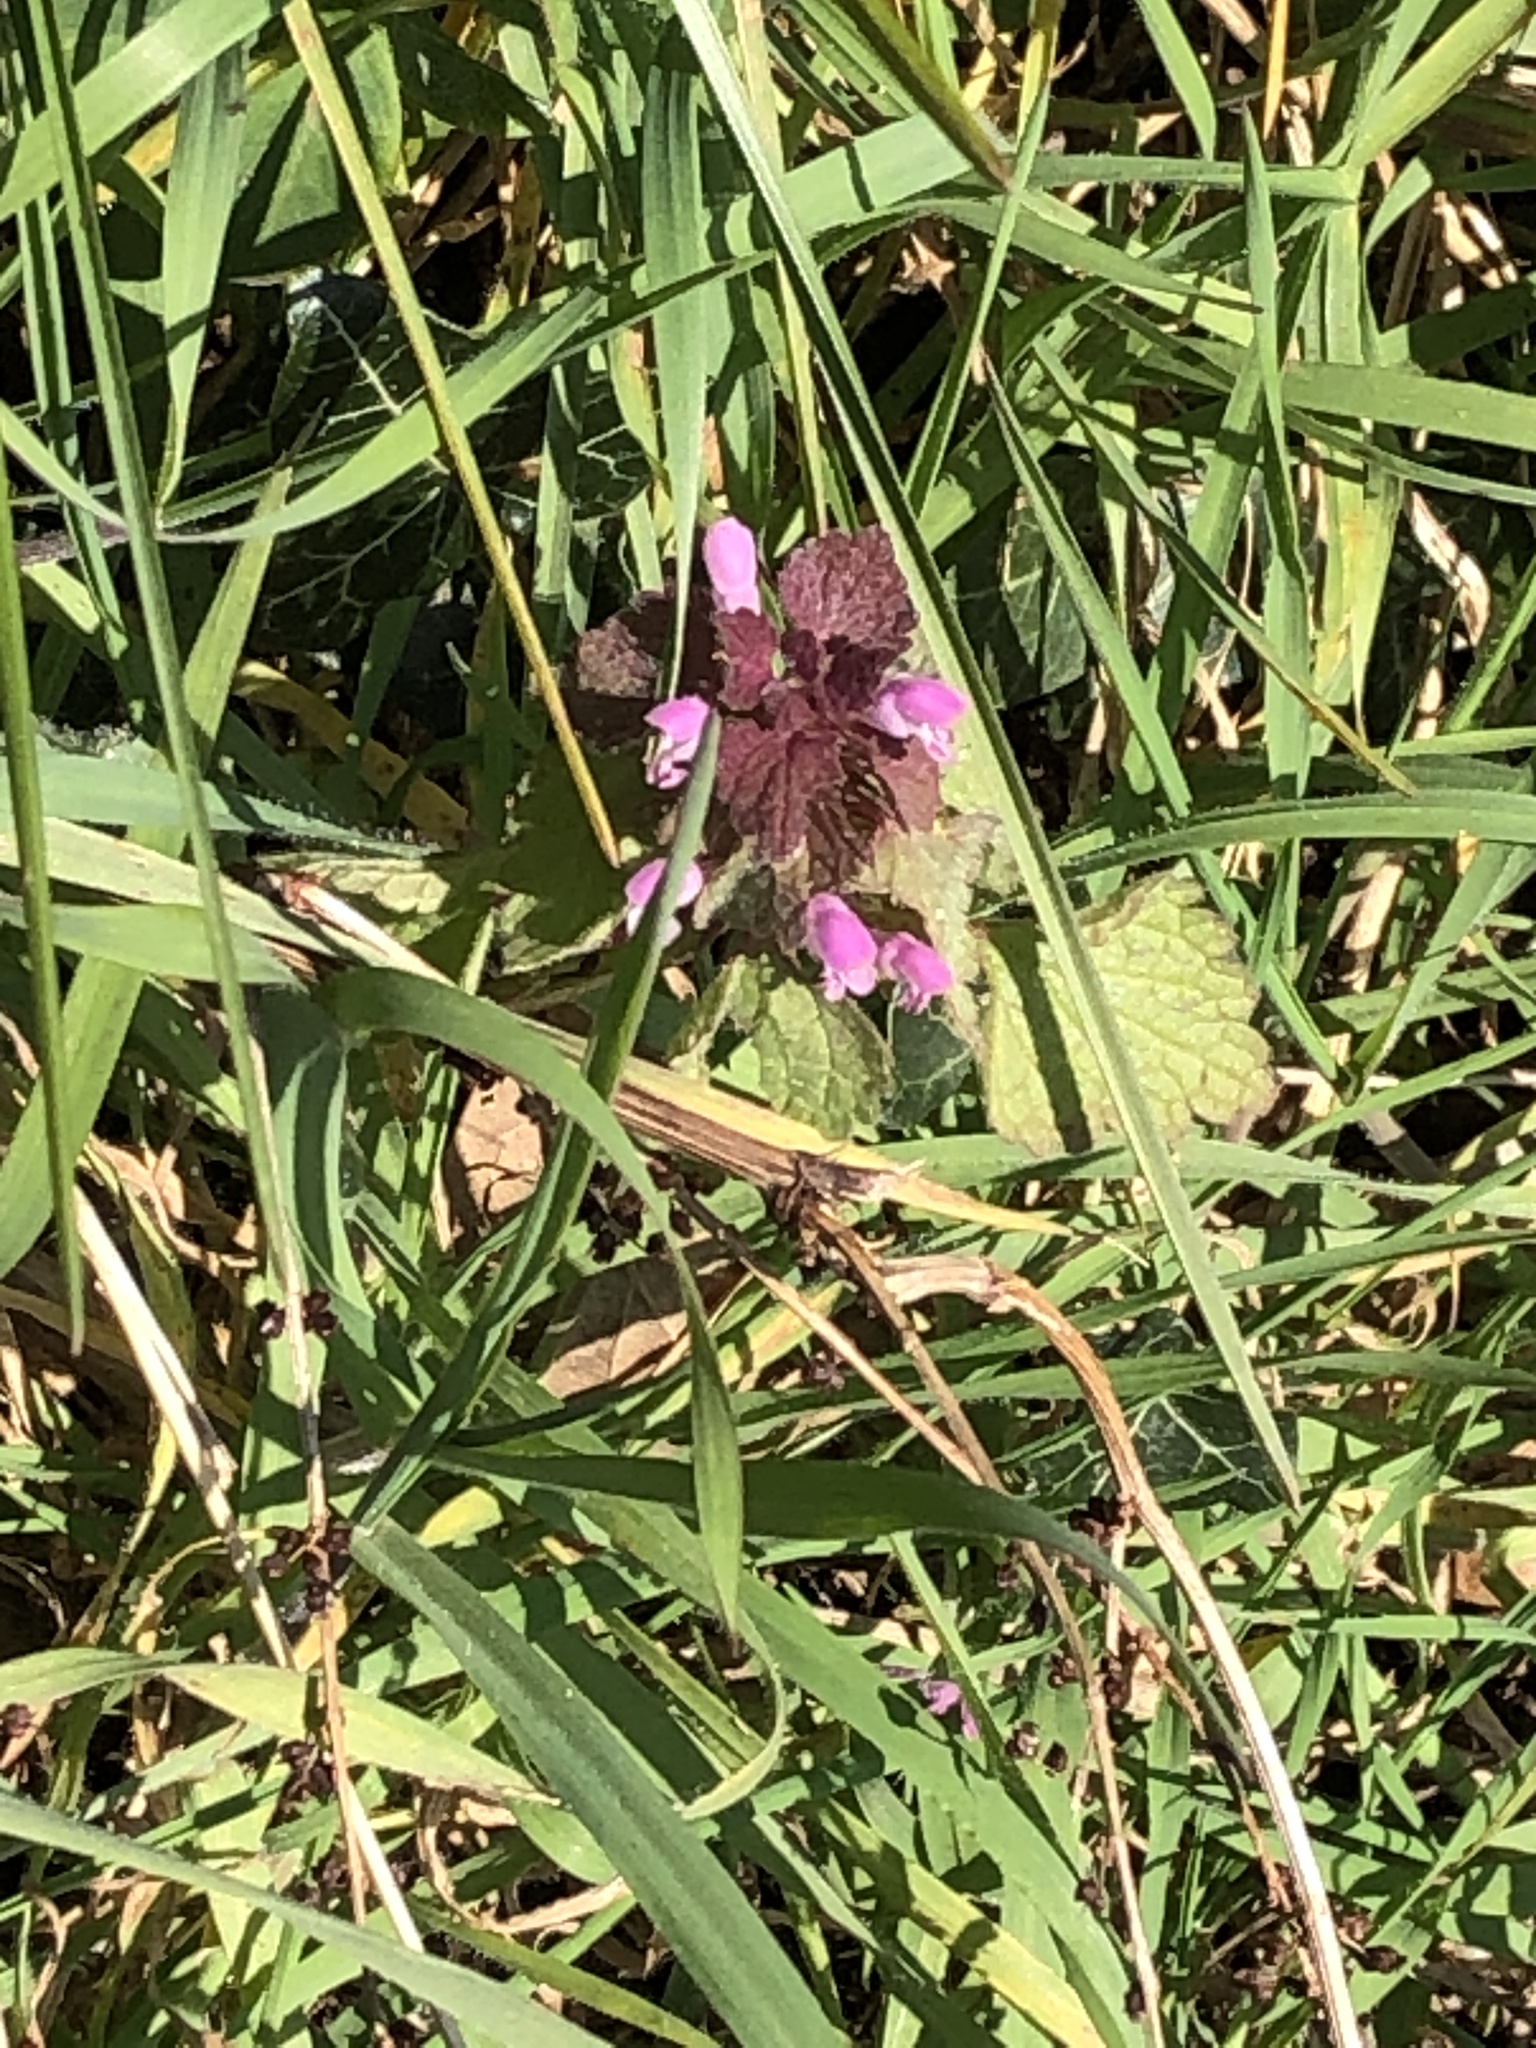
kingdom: Plantae
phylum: Tracheophyta
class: Magnoliopsida
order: Lamiales
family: Lamiaceae
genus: Lamium
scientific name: Lamium purpureum
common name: Red dead-nettle
